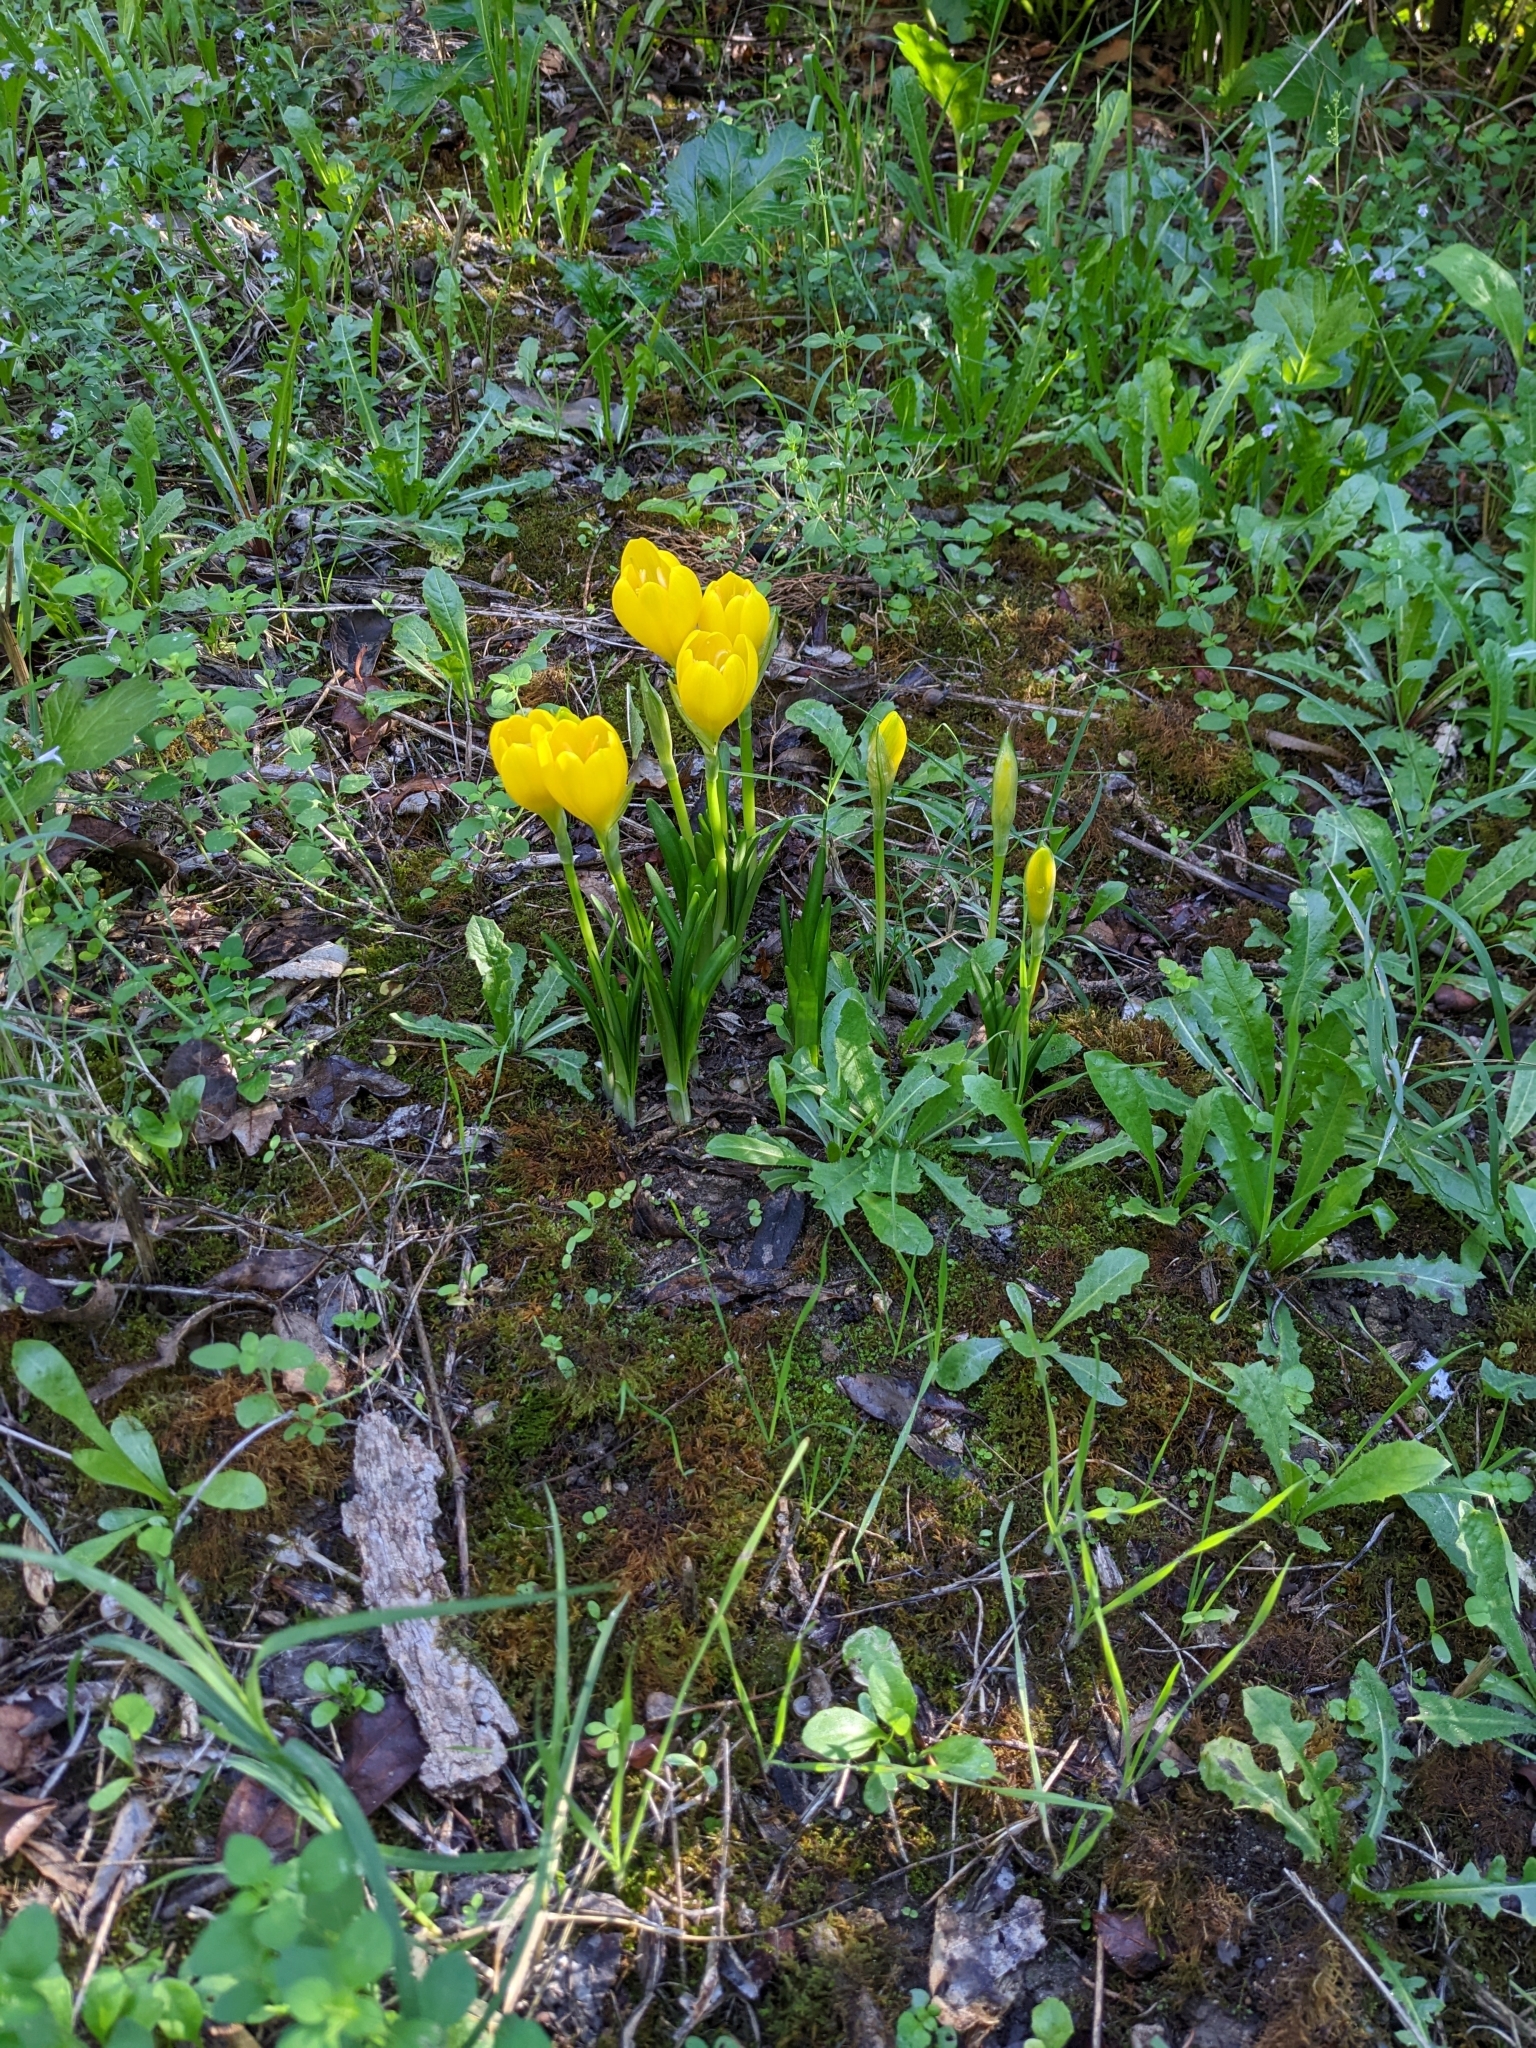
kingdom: Plantae
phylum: Tracheophyta
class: Liliopsida
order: Asparagales
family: Amaryllidaceae
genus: Sternbergia
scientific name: Sternbergia lutea
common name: Winter daffodil
